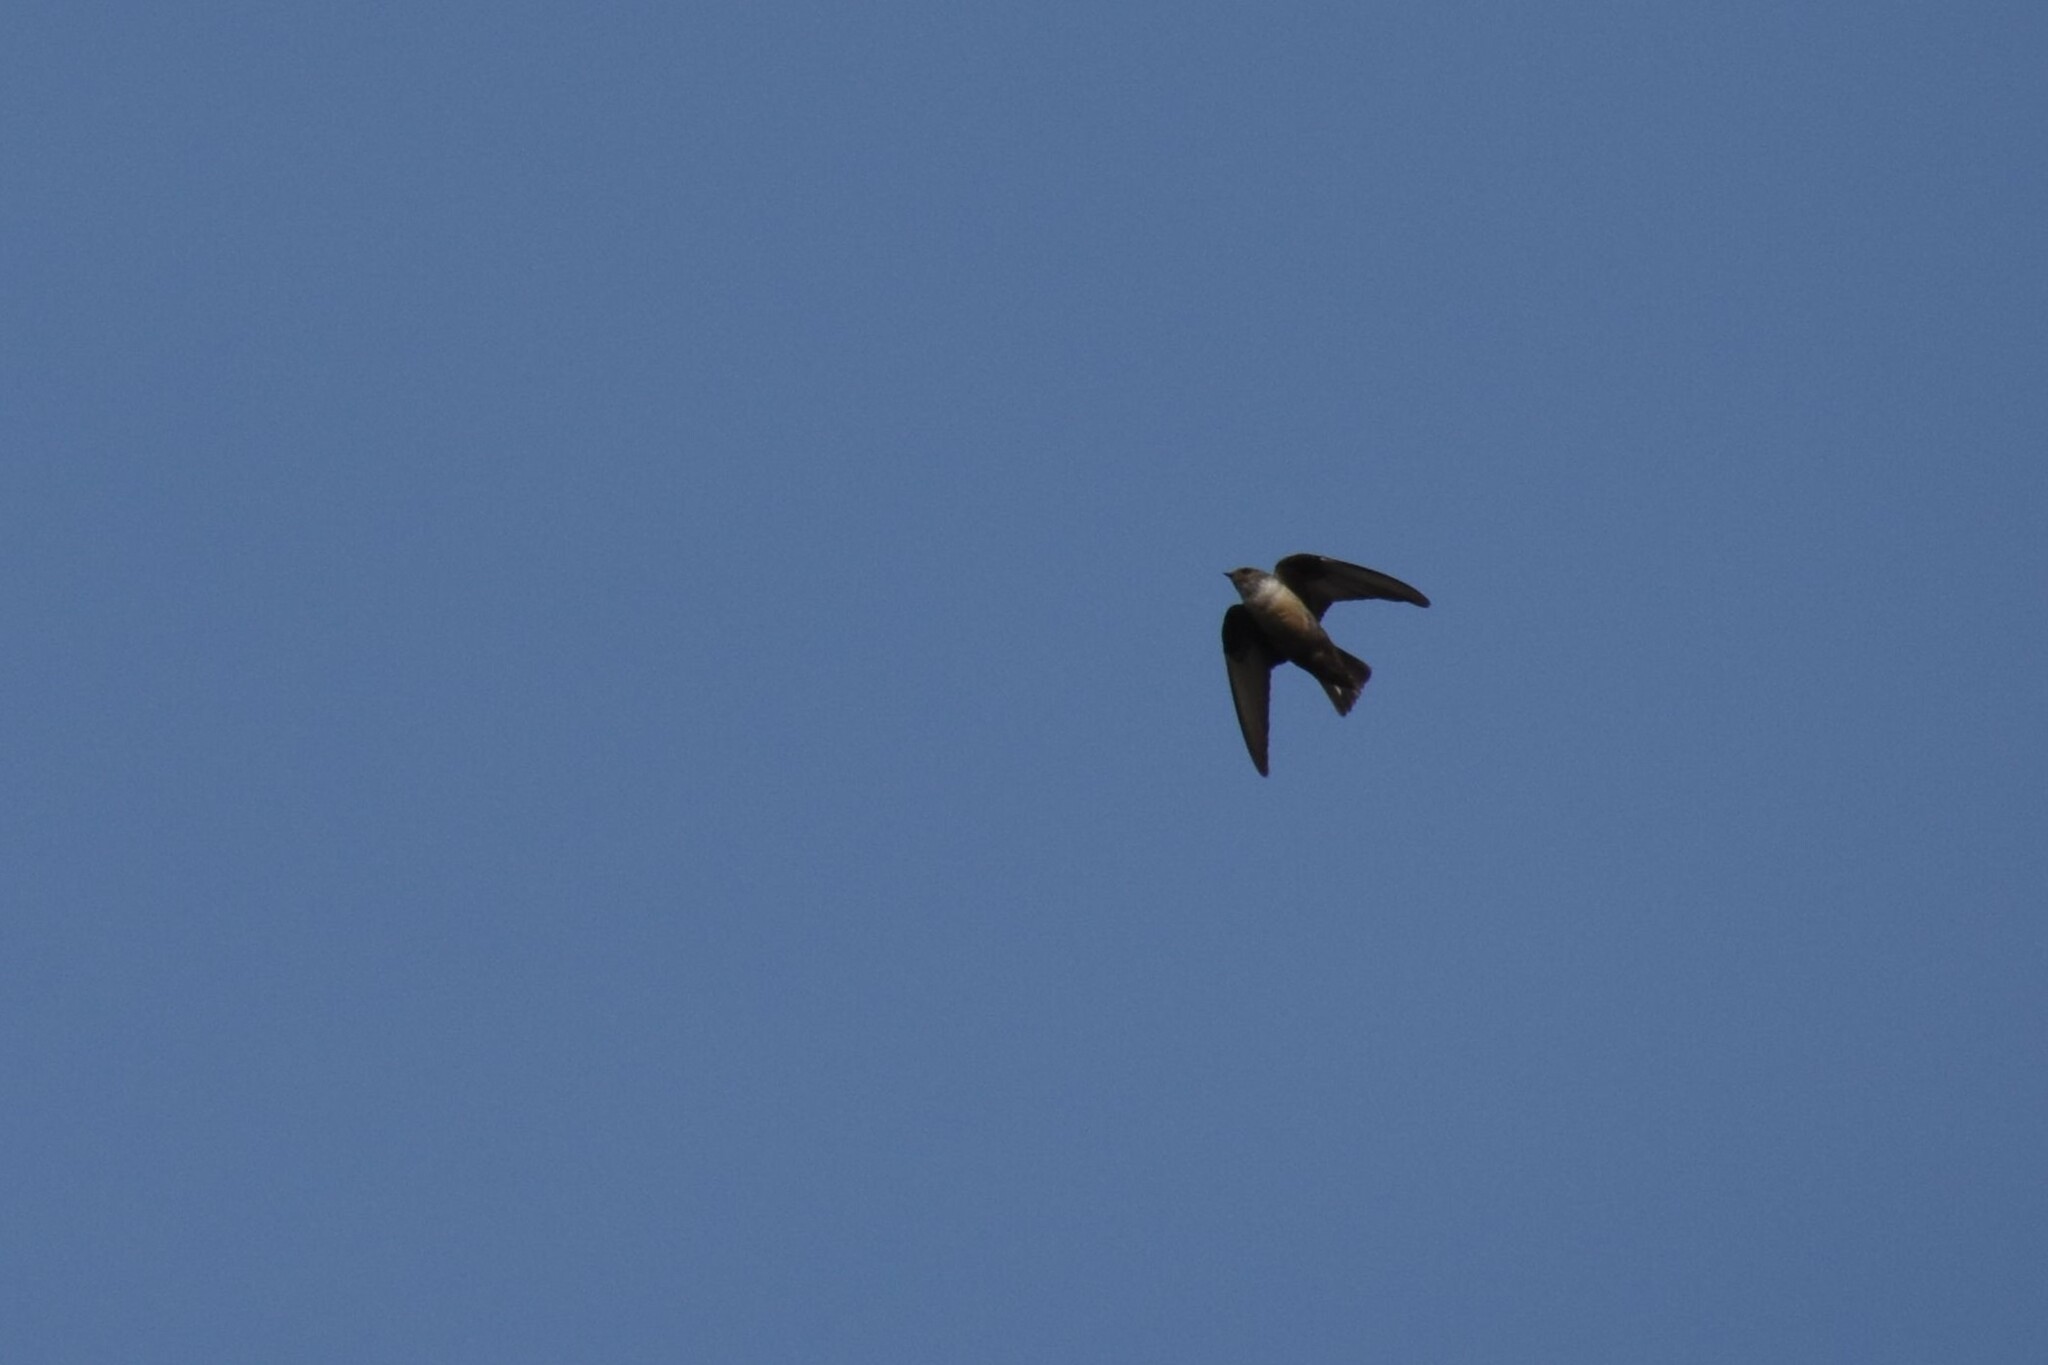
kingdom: Animalia
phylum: Chordata
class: Aves
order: Passeriformes
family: Hirundinidae
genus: Ptyonoprogne
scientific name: Ptyonoprogne rupestris
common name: Eurasian crag martin
